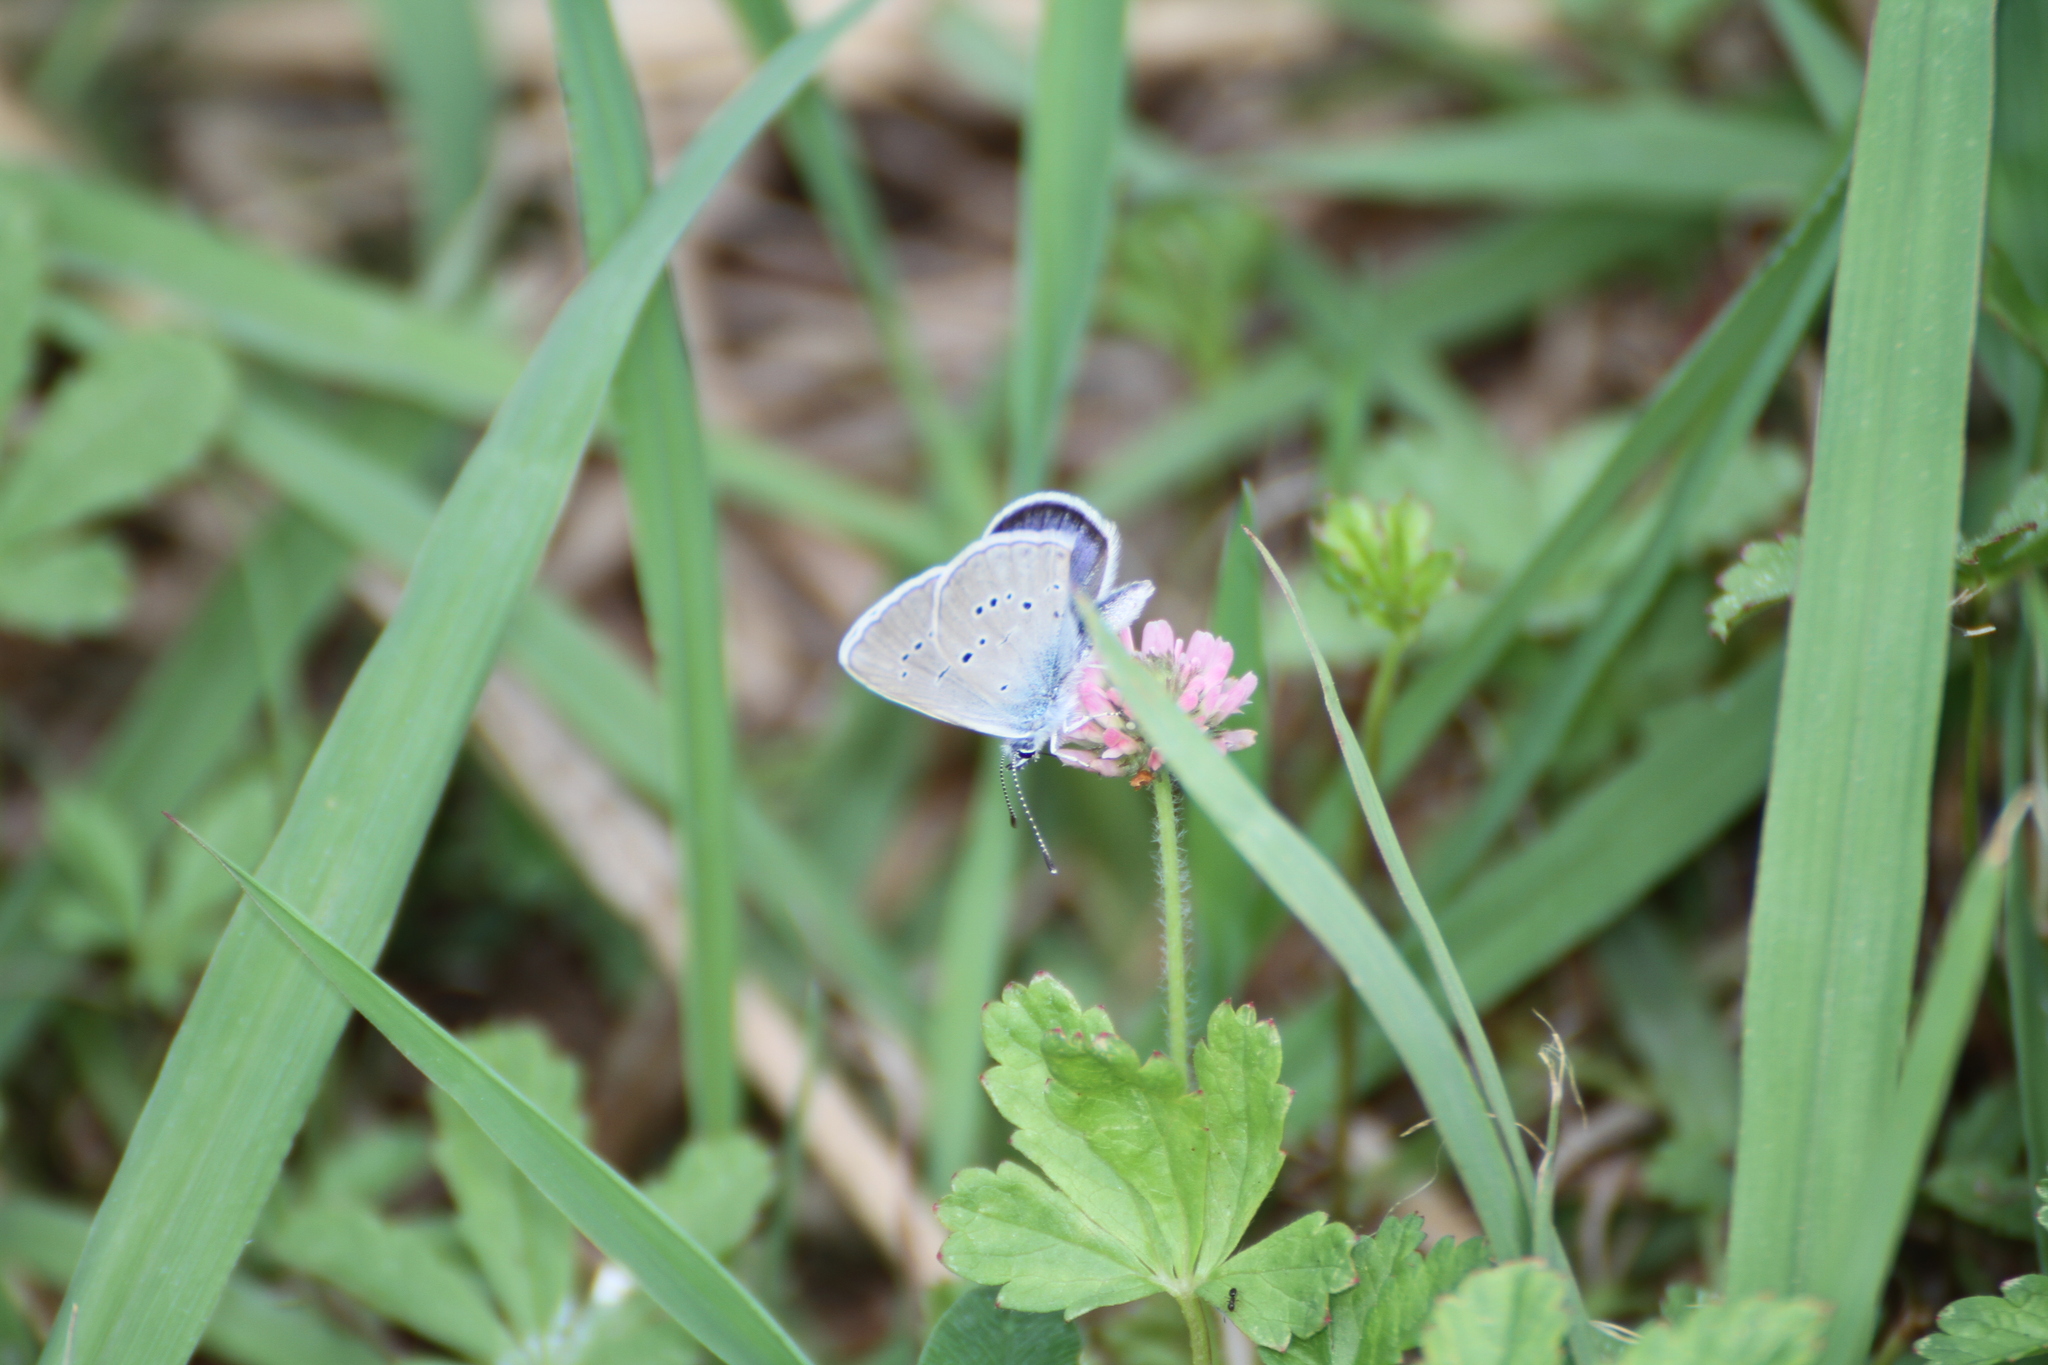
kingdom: Animalia
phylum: Arthropoda
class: Insecta
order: Lepidoptera
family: Lycaenidae
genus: Cyaniris
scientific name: Cyaniris semiargus
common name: Mazarine blue
